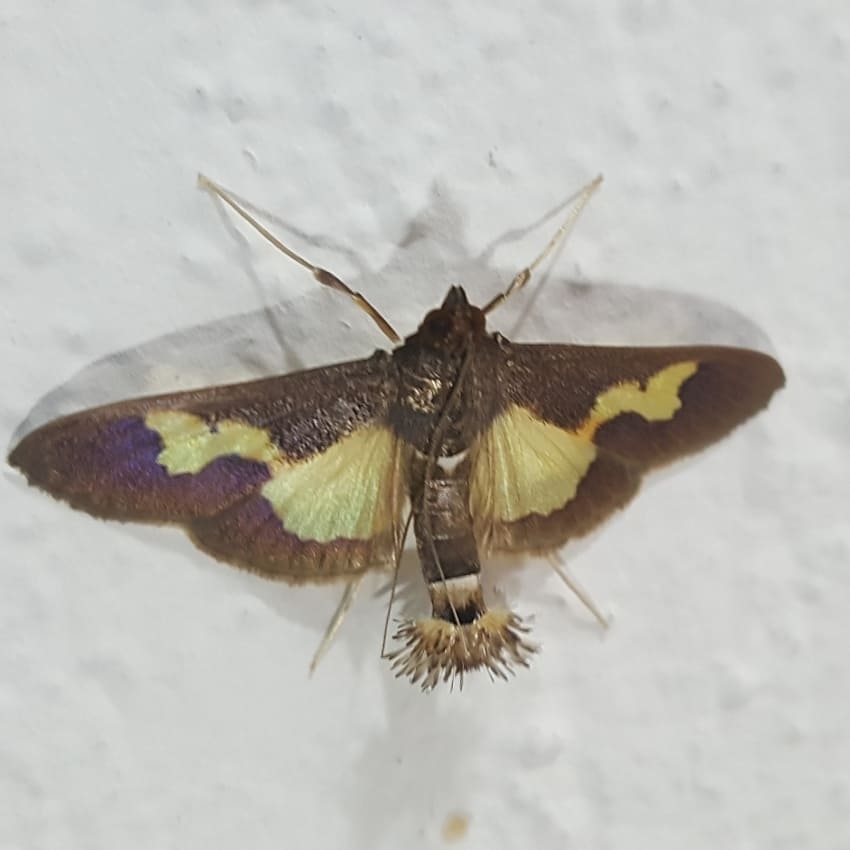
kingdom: Animalia
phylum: Arthropoda
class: Insecta
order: Lepidoptera
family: Crambidae
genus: Cryptographis
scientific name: Cryptographis nitidalis
